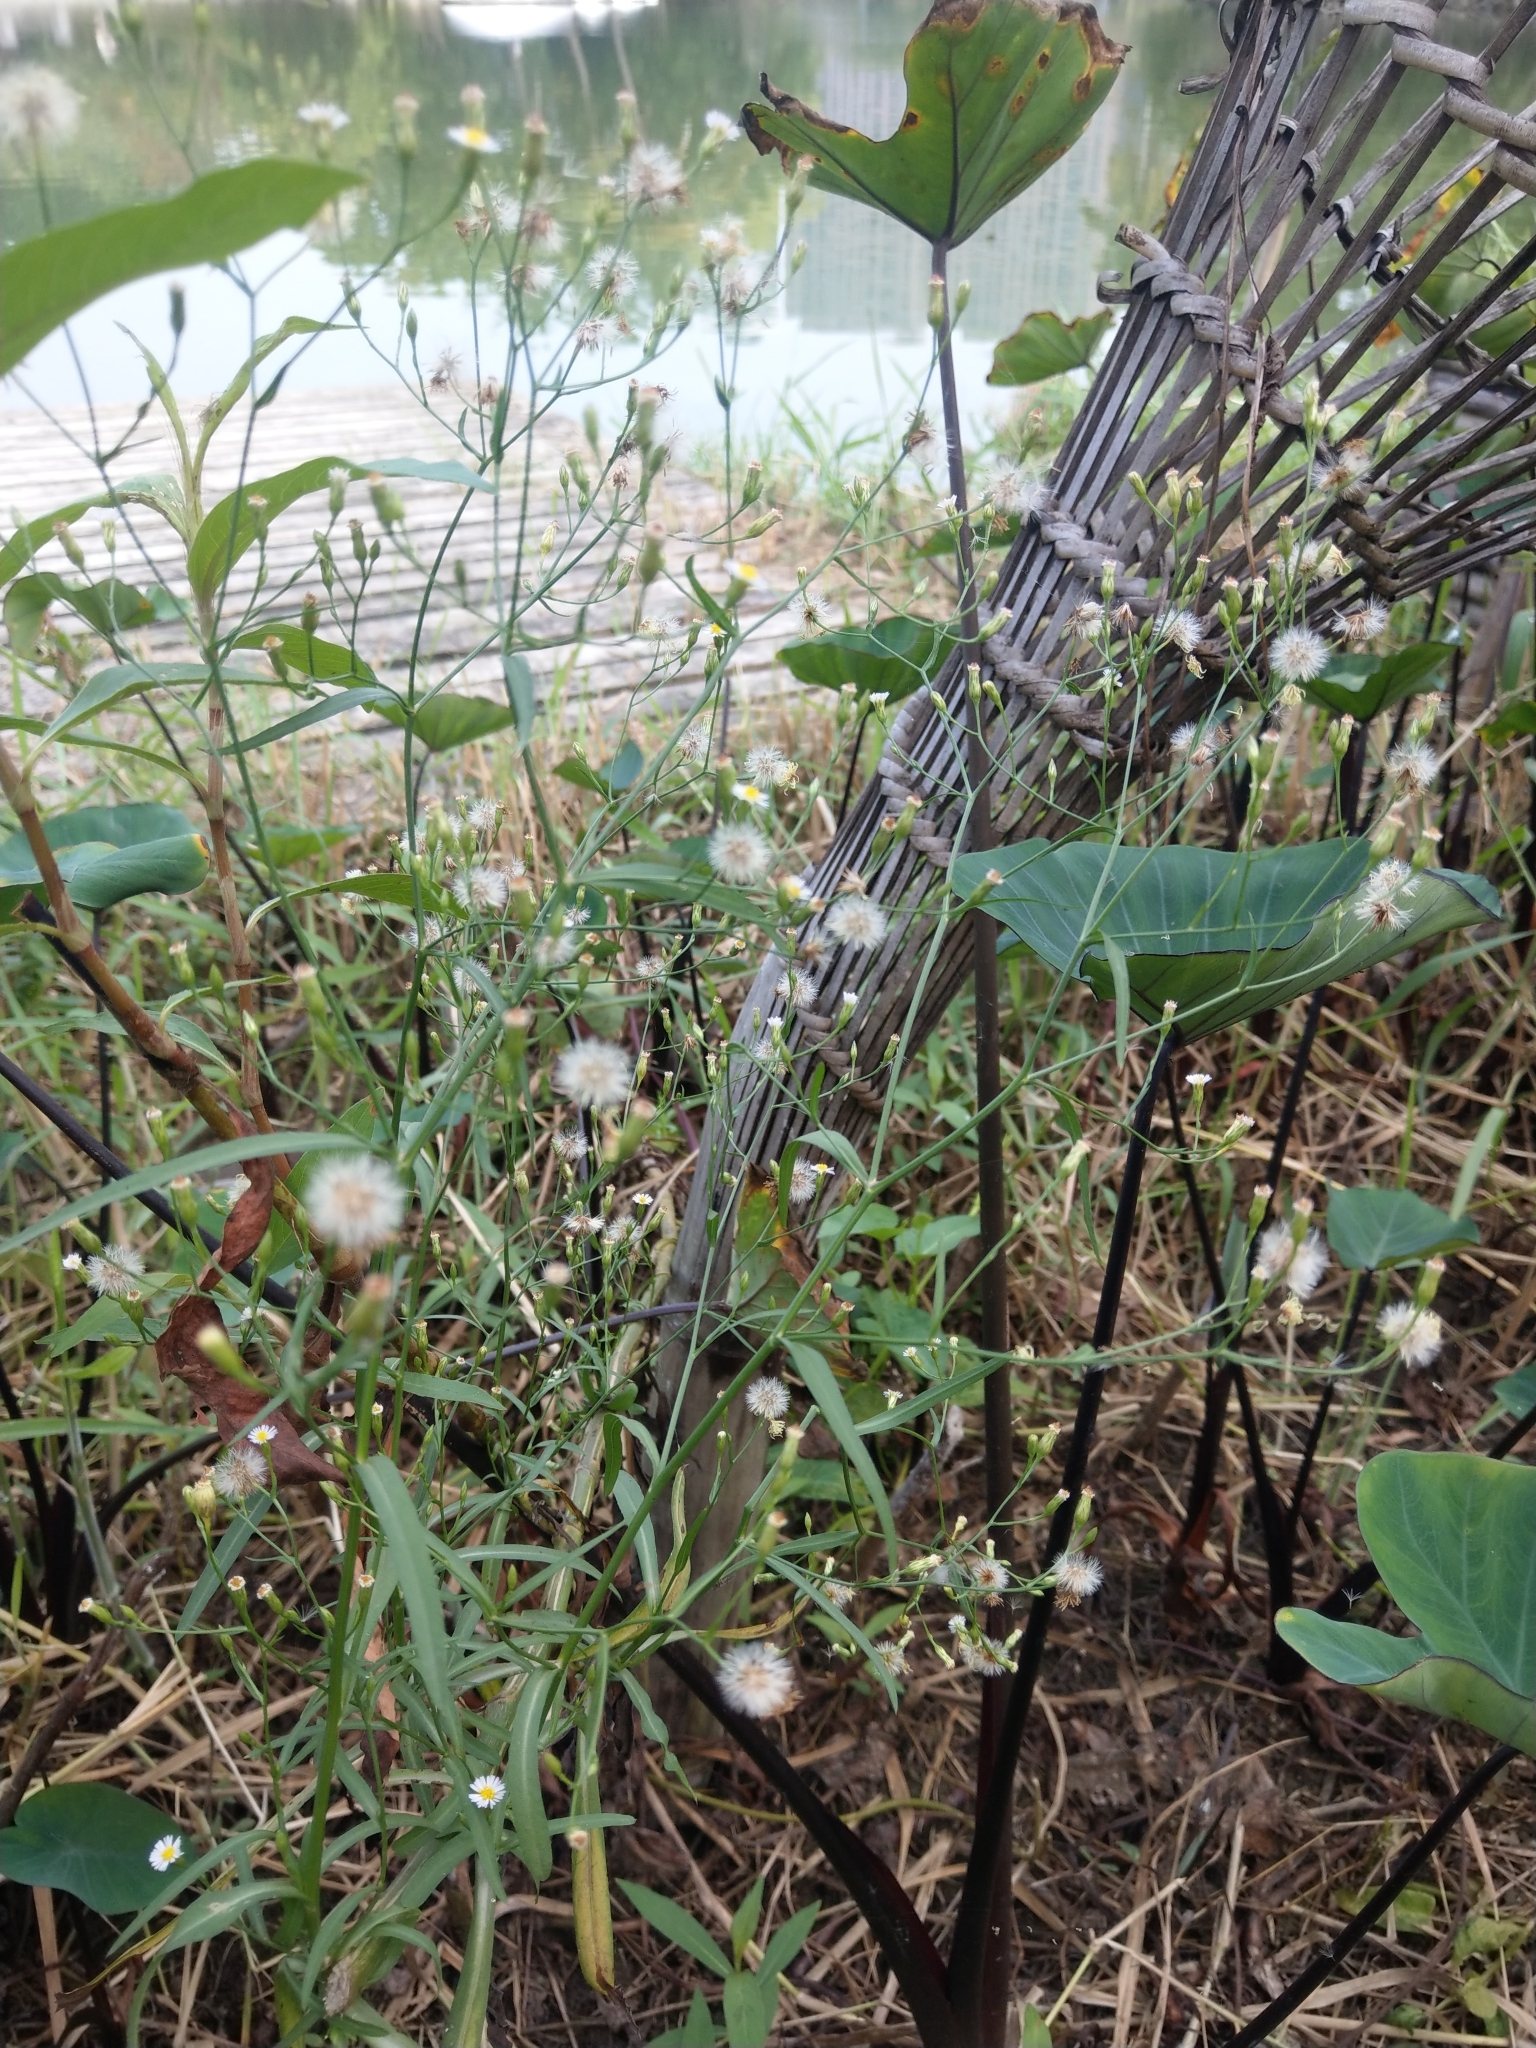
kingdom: Plantae
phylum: Tracheophyta
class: Magnoliopsida
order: Asterales
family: Asteraceae
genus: Symphyotrichum
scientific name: Symphyotrichum subulatum
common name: Annual saltmarsh aster
